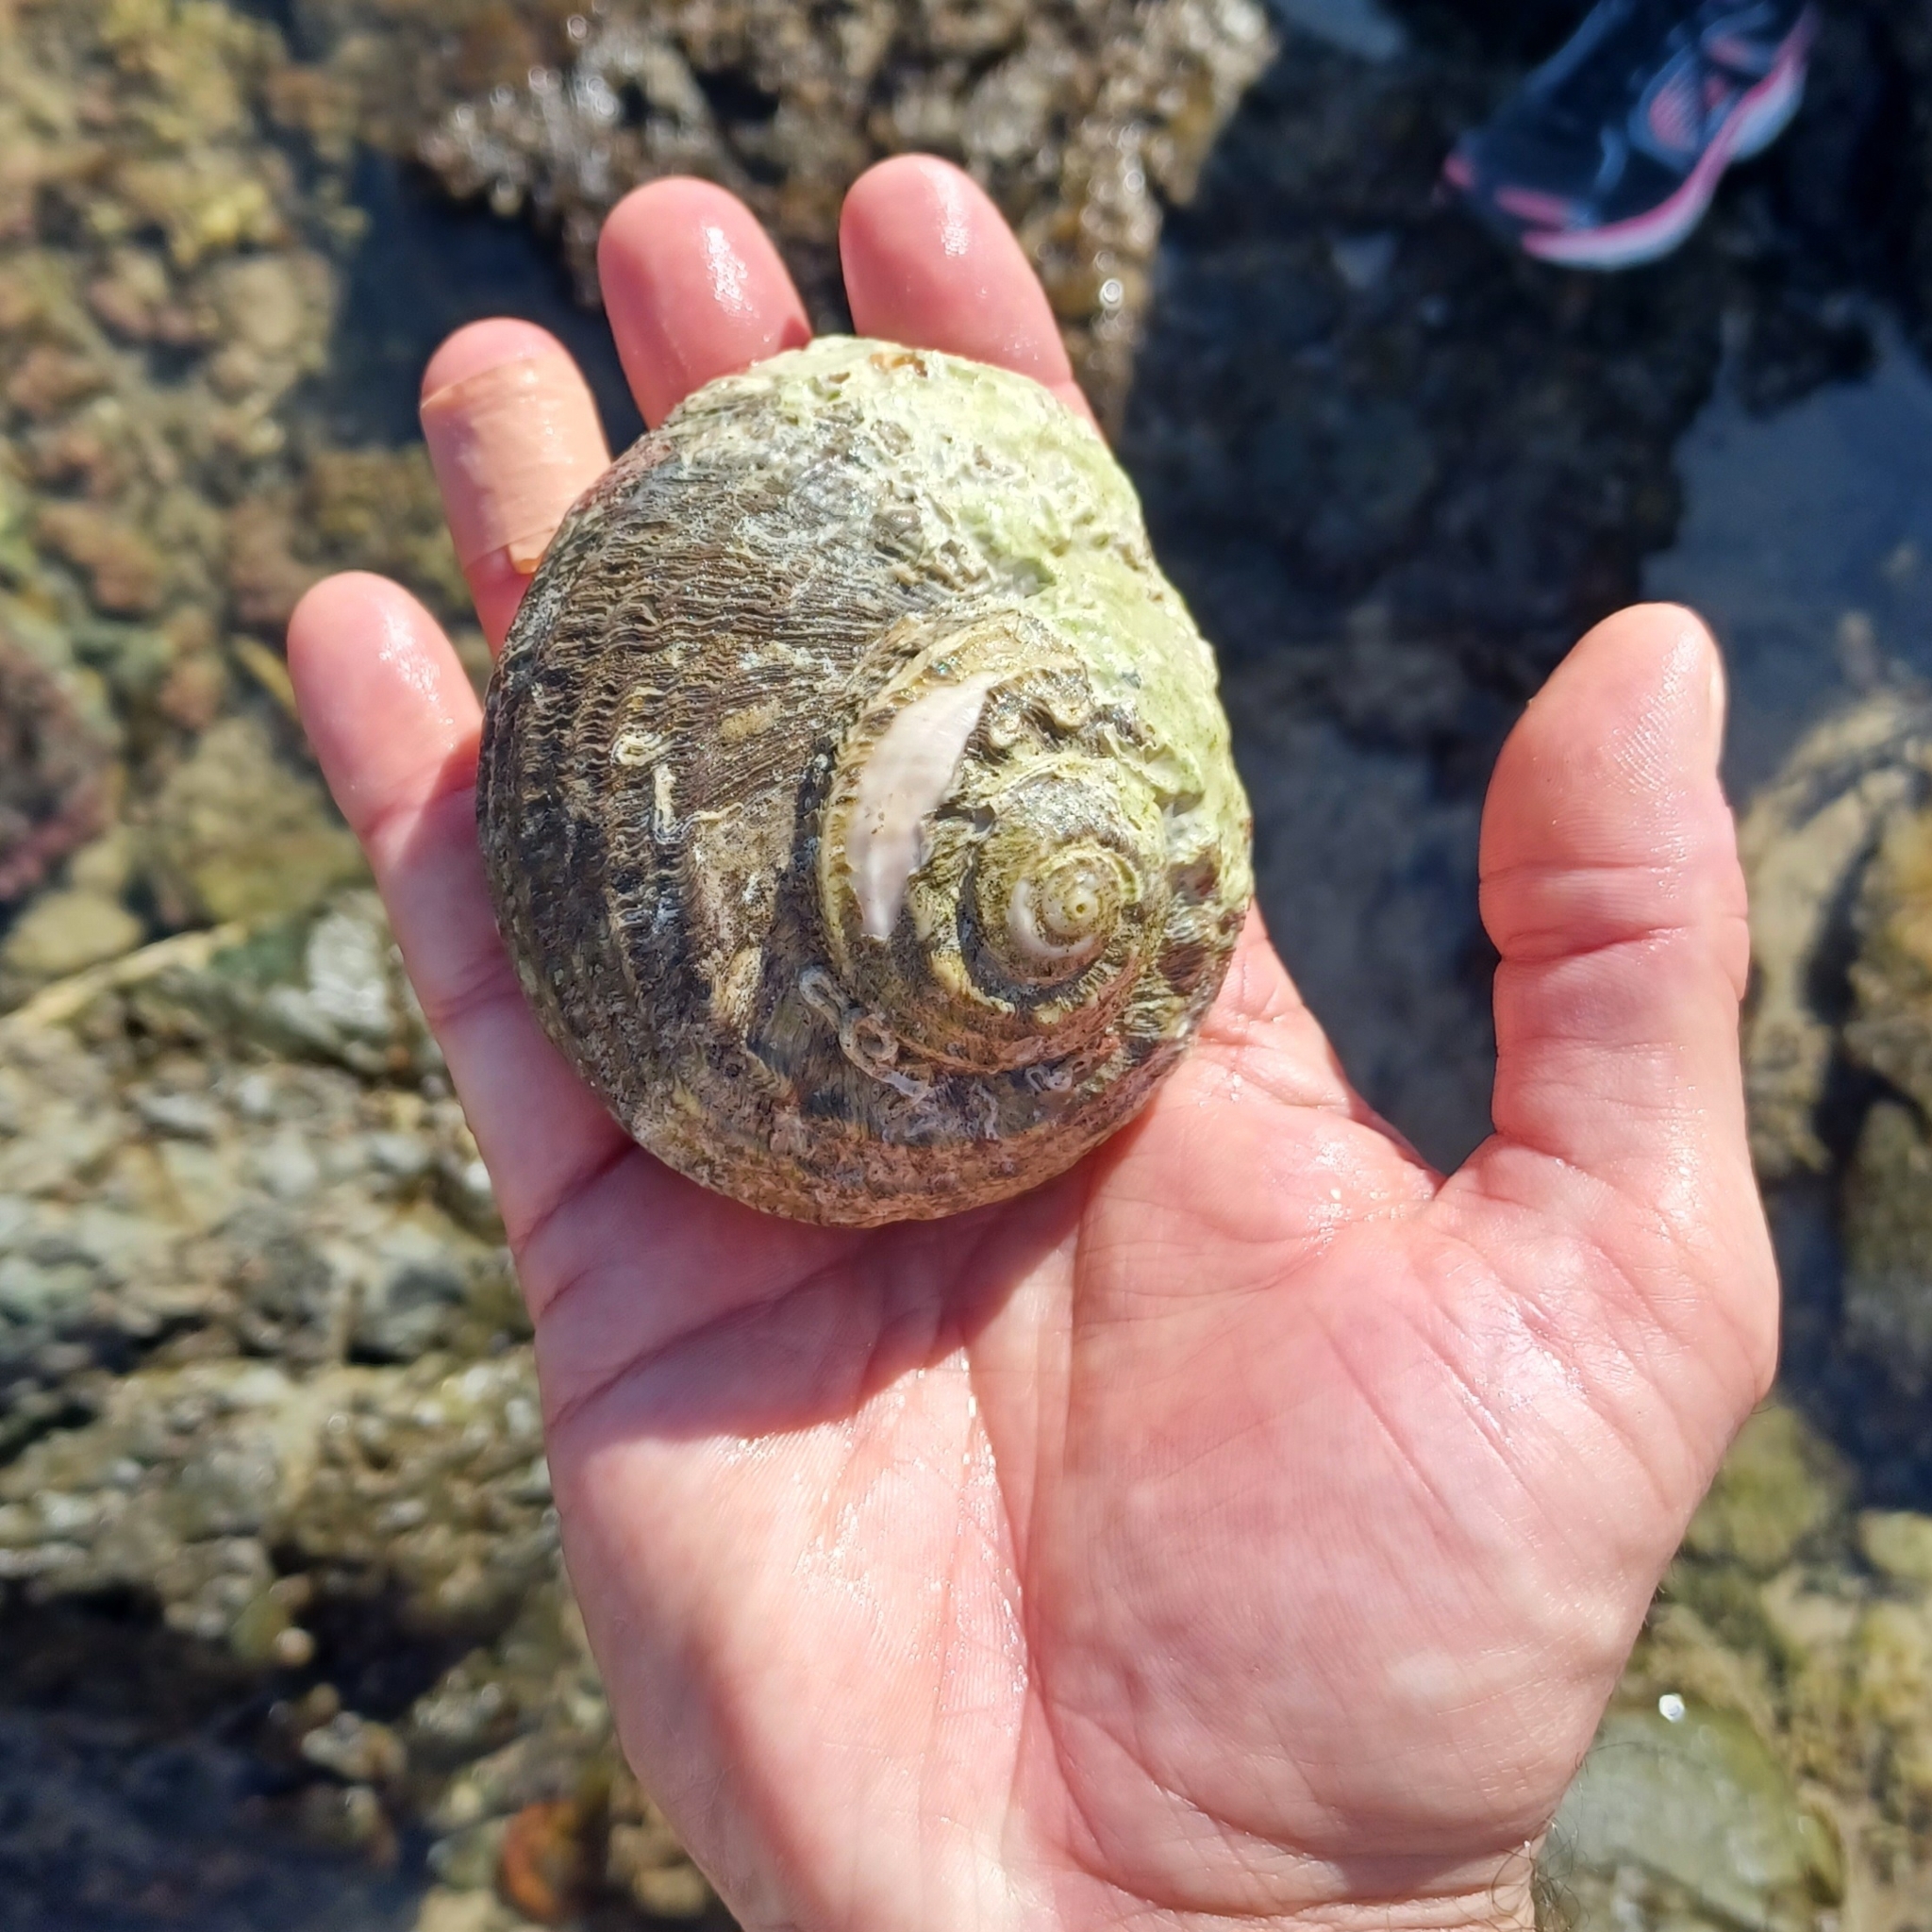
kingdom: Animalia
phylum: Mollusca
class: Gastropoda
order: Trochida
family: Turbinidae
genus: Lunella
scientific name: Lunella torquata
